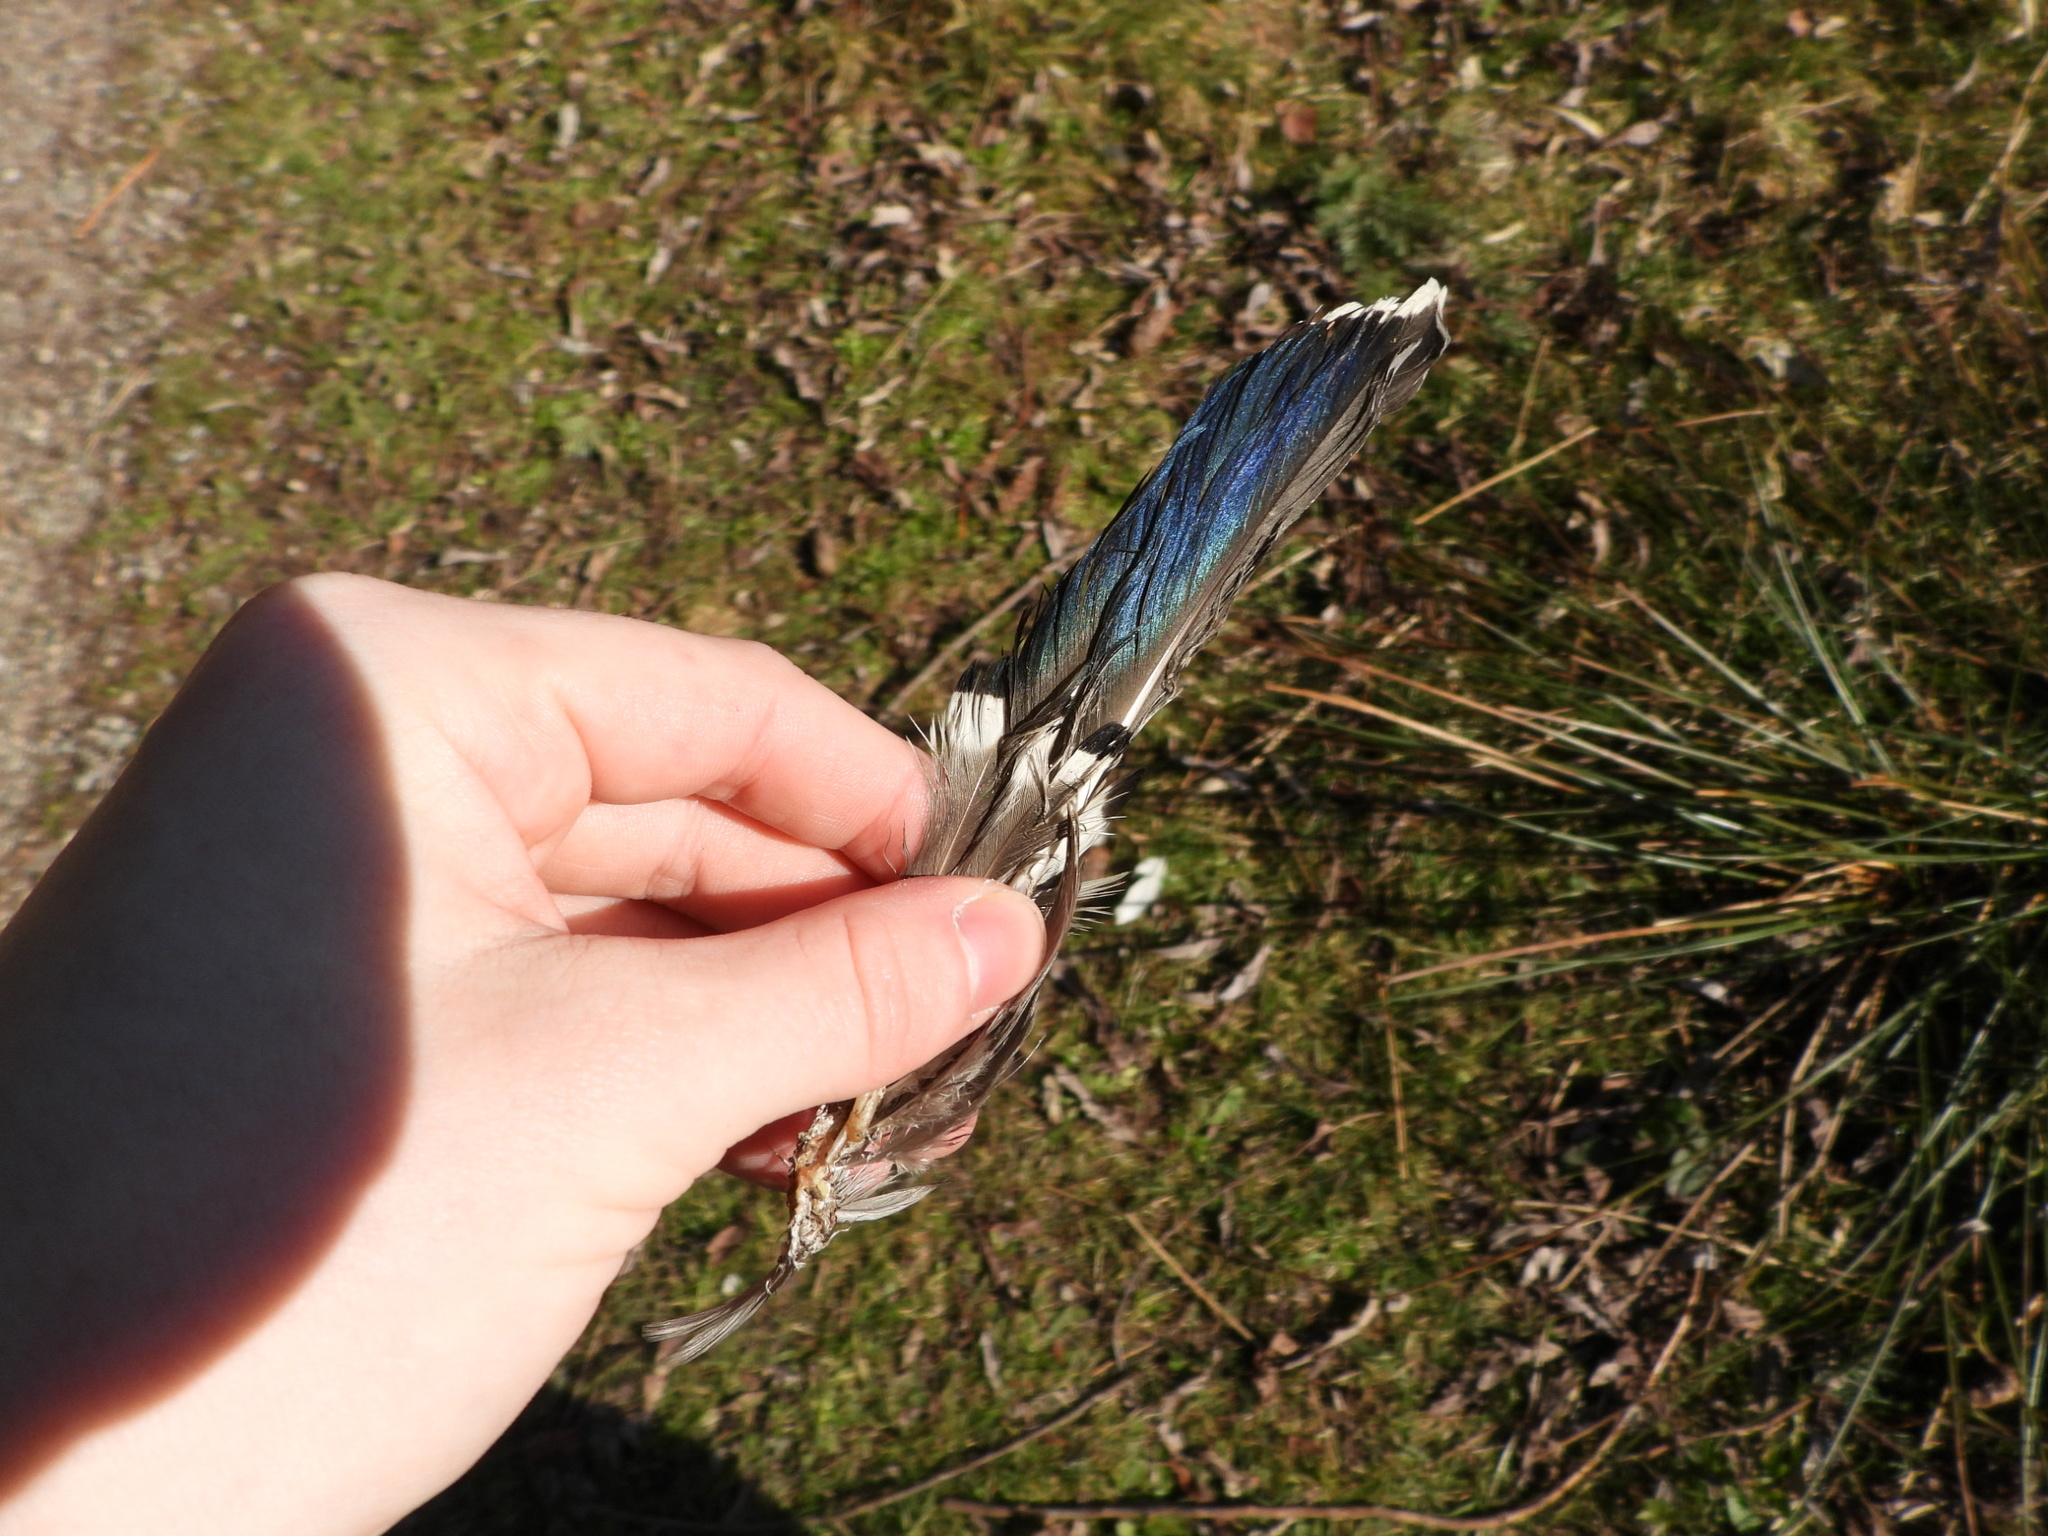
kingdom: Animalia
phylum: Chordata
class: Aves
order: Anseriformes
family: Anatidae
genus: Anas
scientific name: Anas platyrhynchos
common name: Mallard
